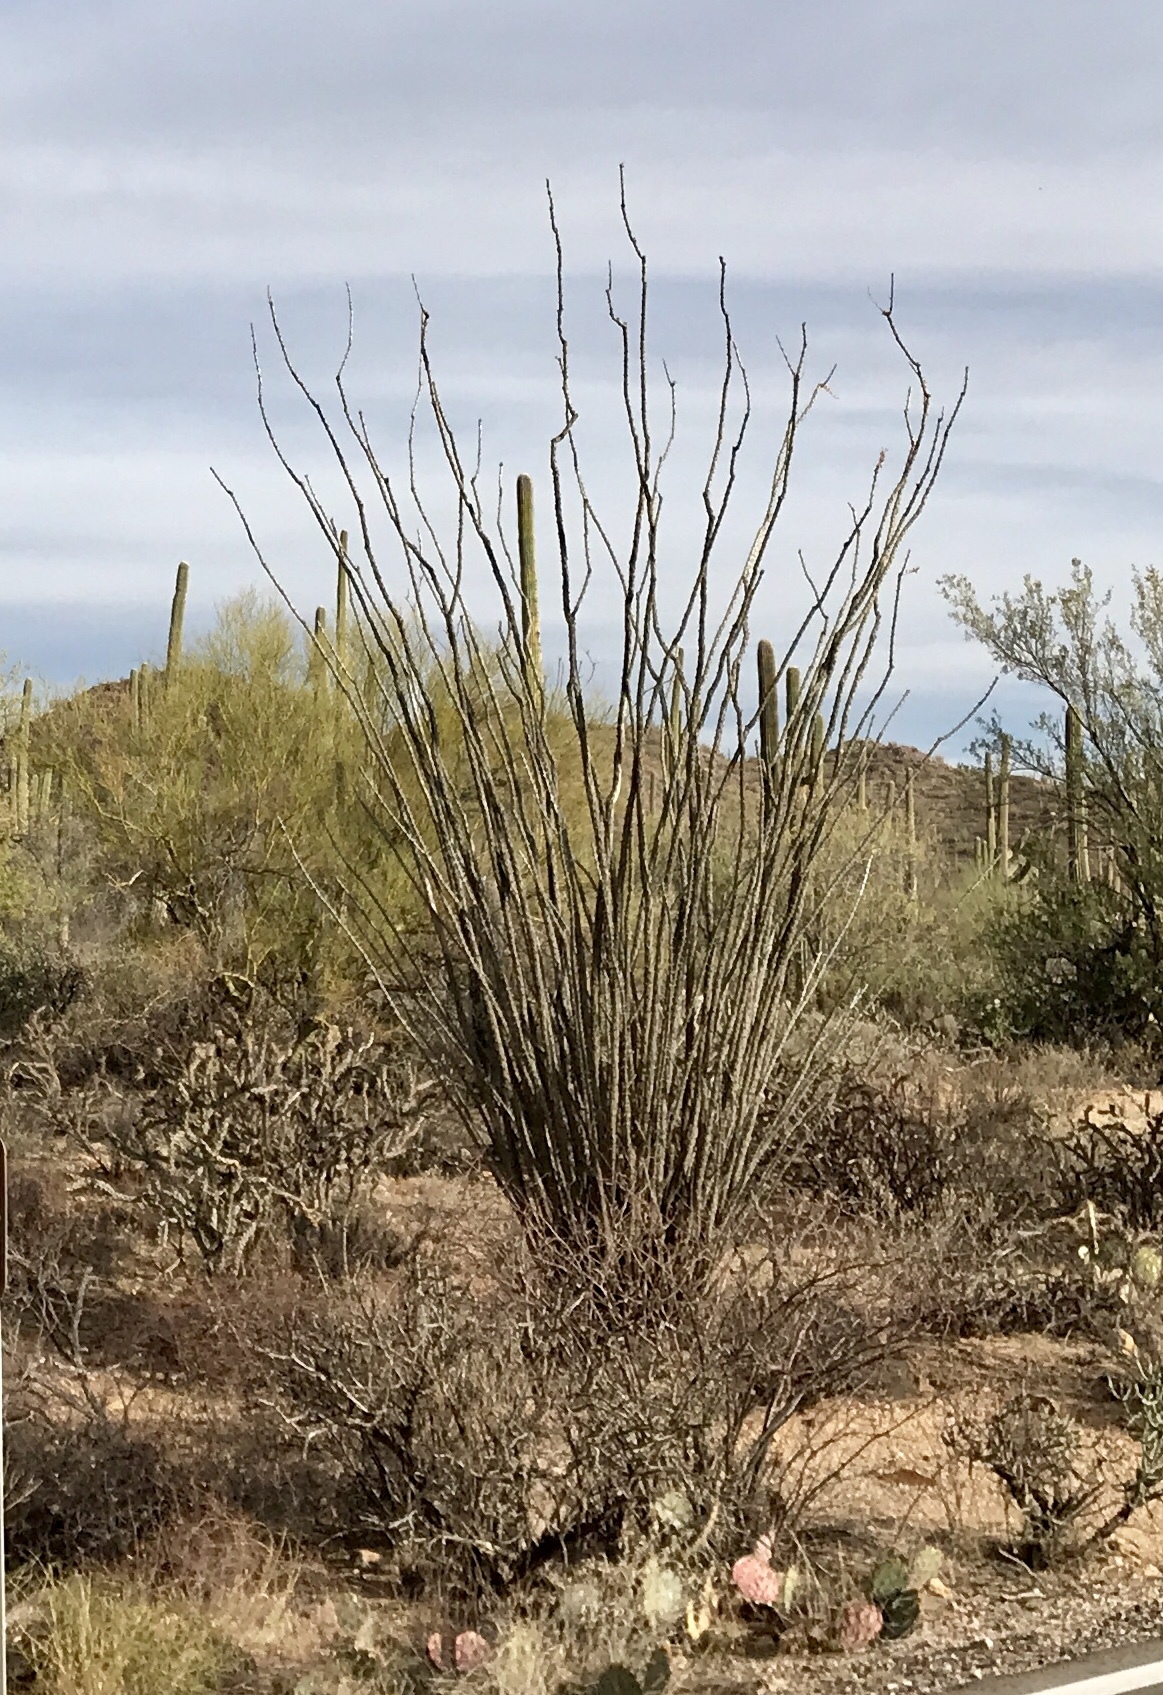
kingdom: Plantae
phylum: Tracheophyta
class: Magnoliopsida
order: Ericales
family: Fouquieriaceae
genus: Fouquieria
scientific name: Fouquieria splendens
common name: Vine-cactus
